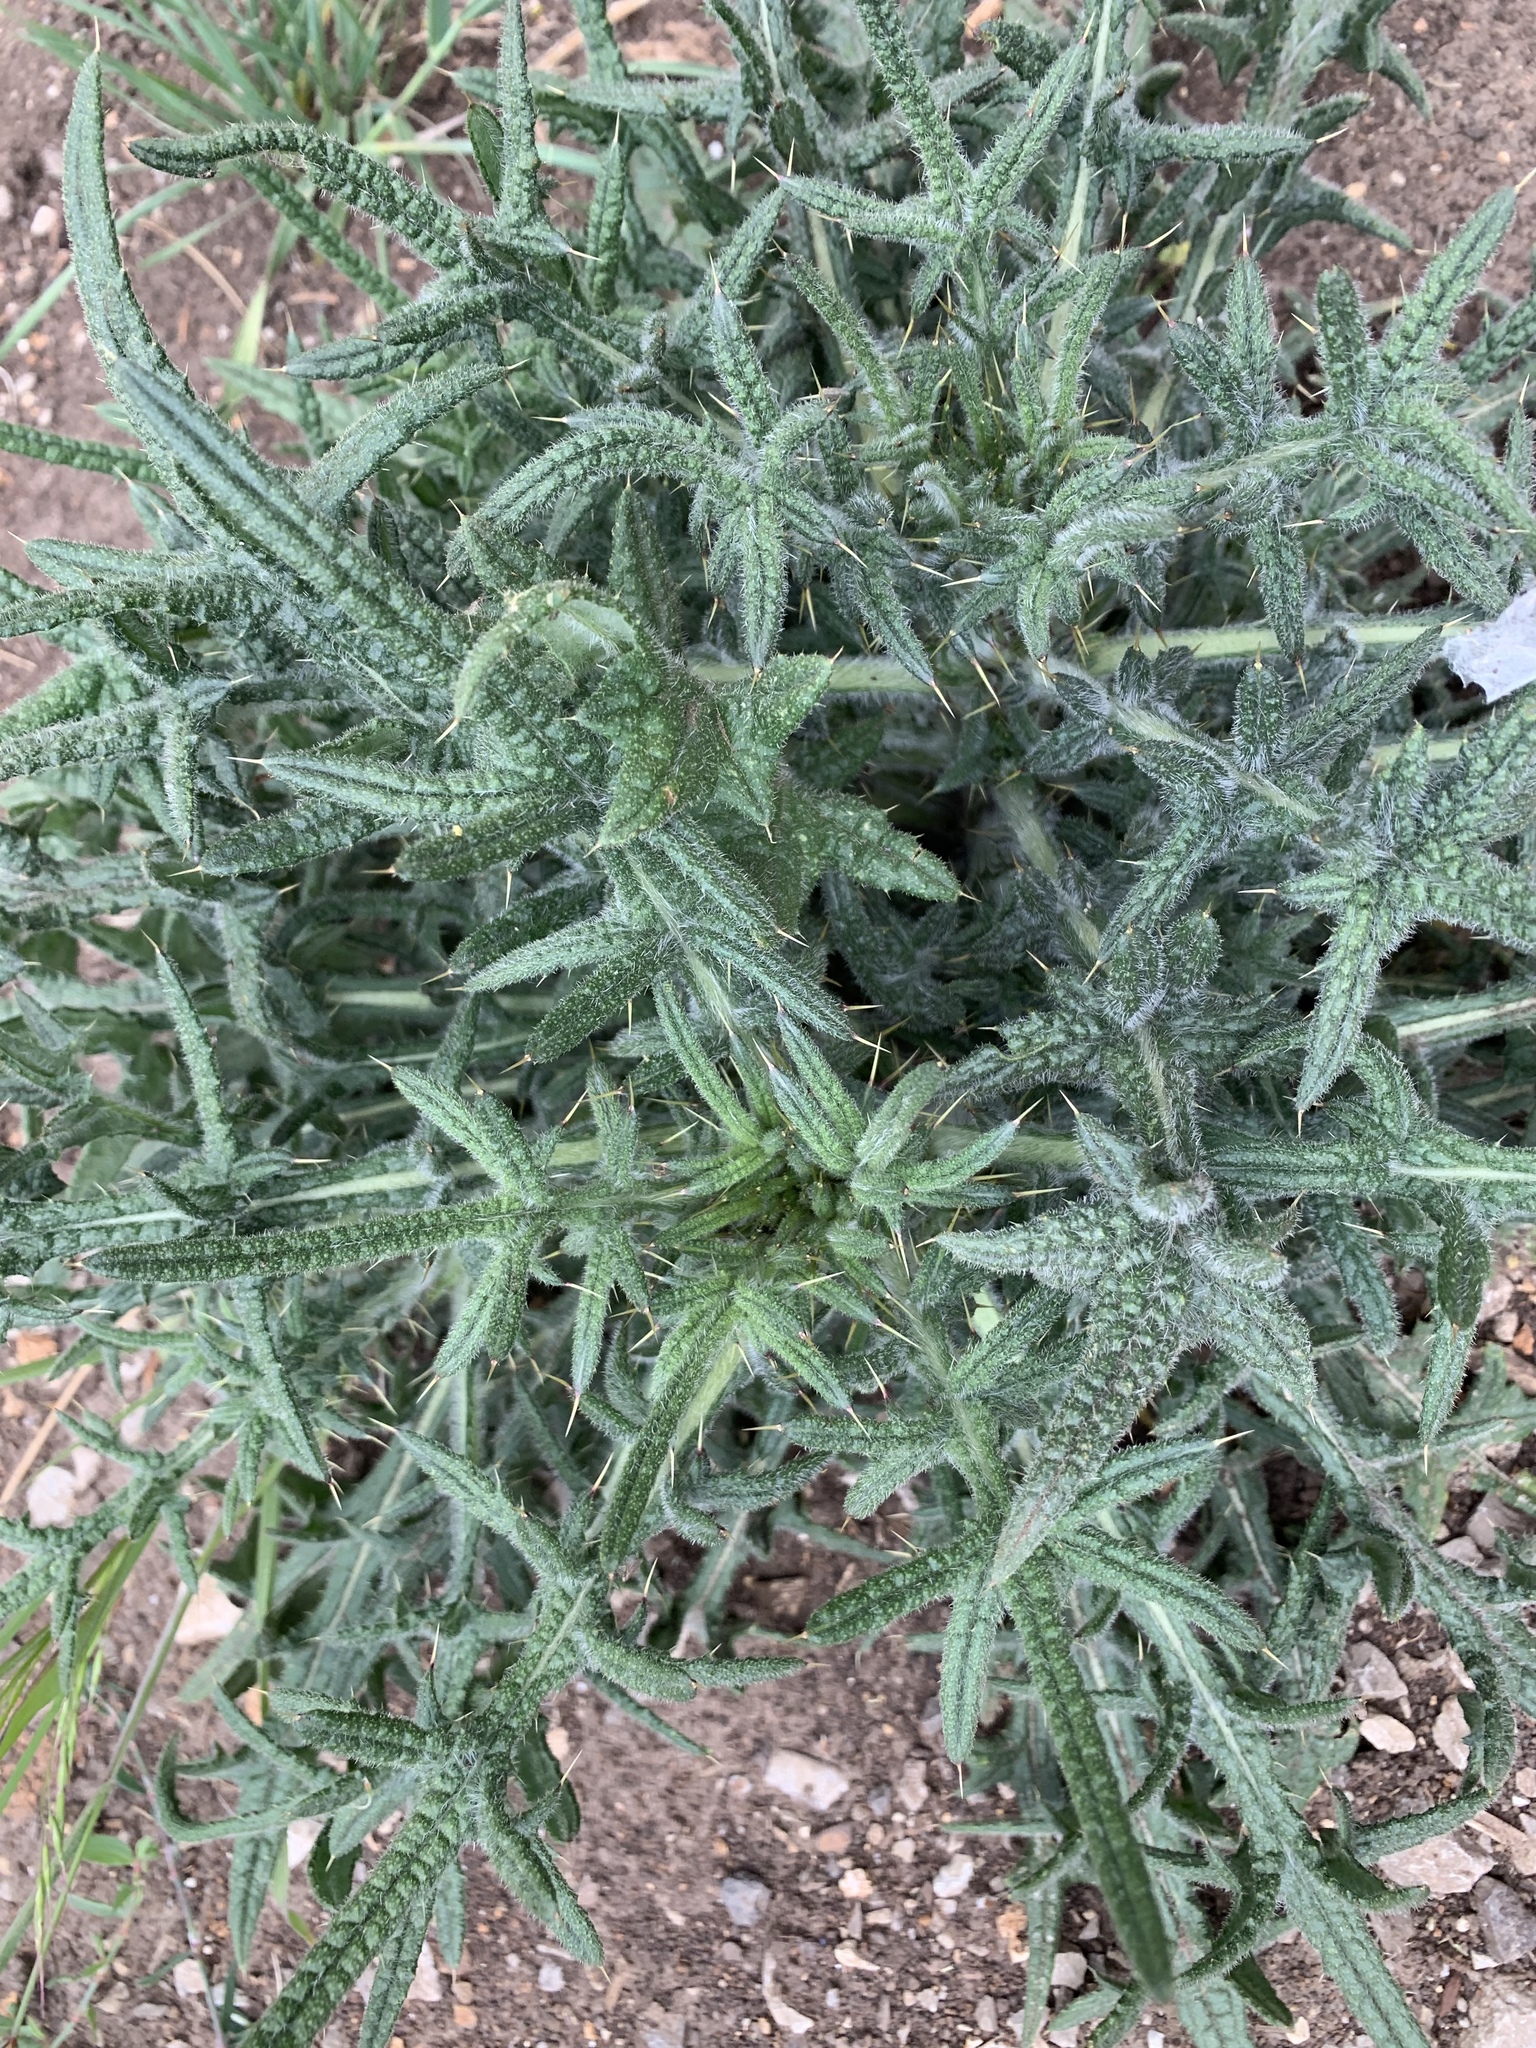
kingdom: Plantae
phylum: Tracheophyta
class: Magnoliopsida
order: Asterales
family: Asteraceae
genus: Cirsium
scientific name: Cirsium vulgare
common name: Bull thistle
